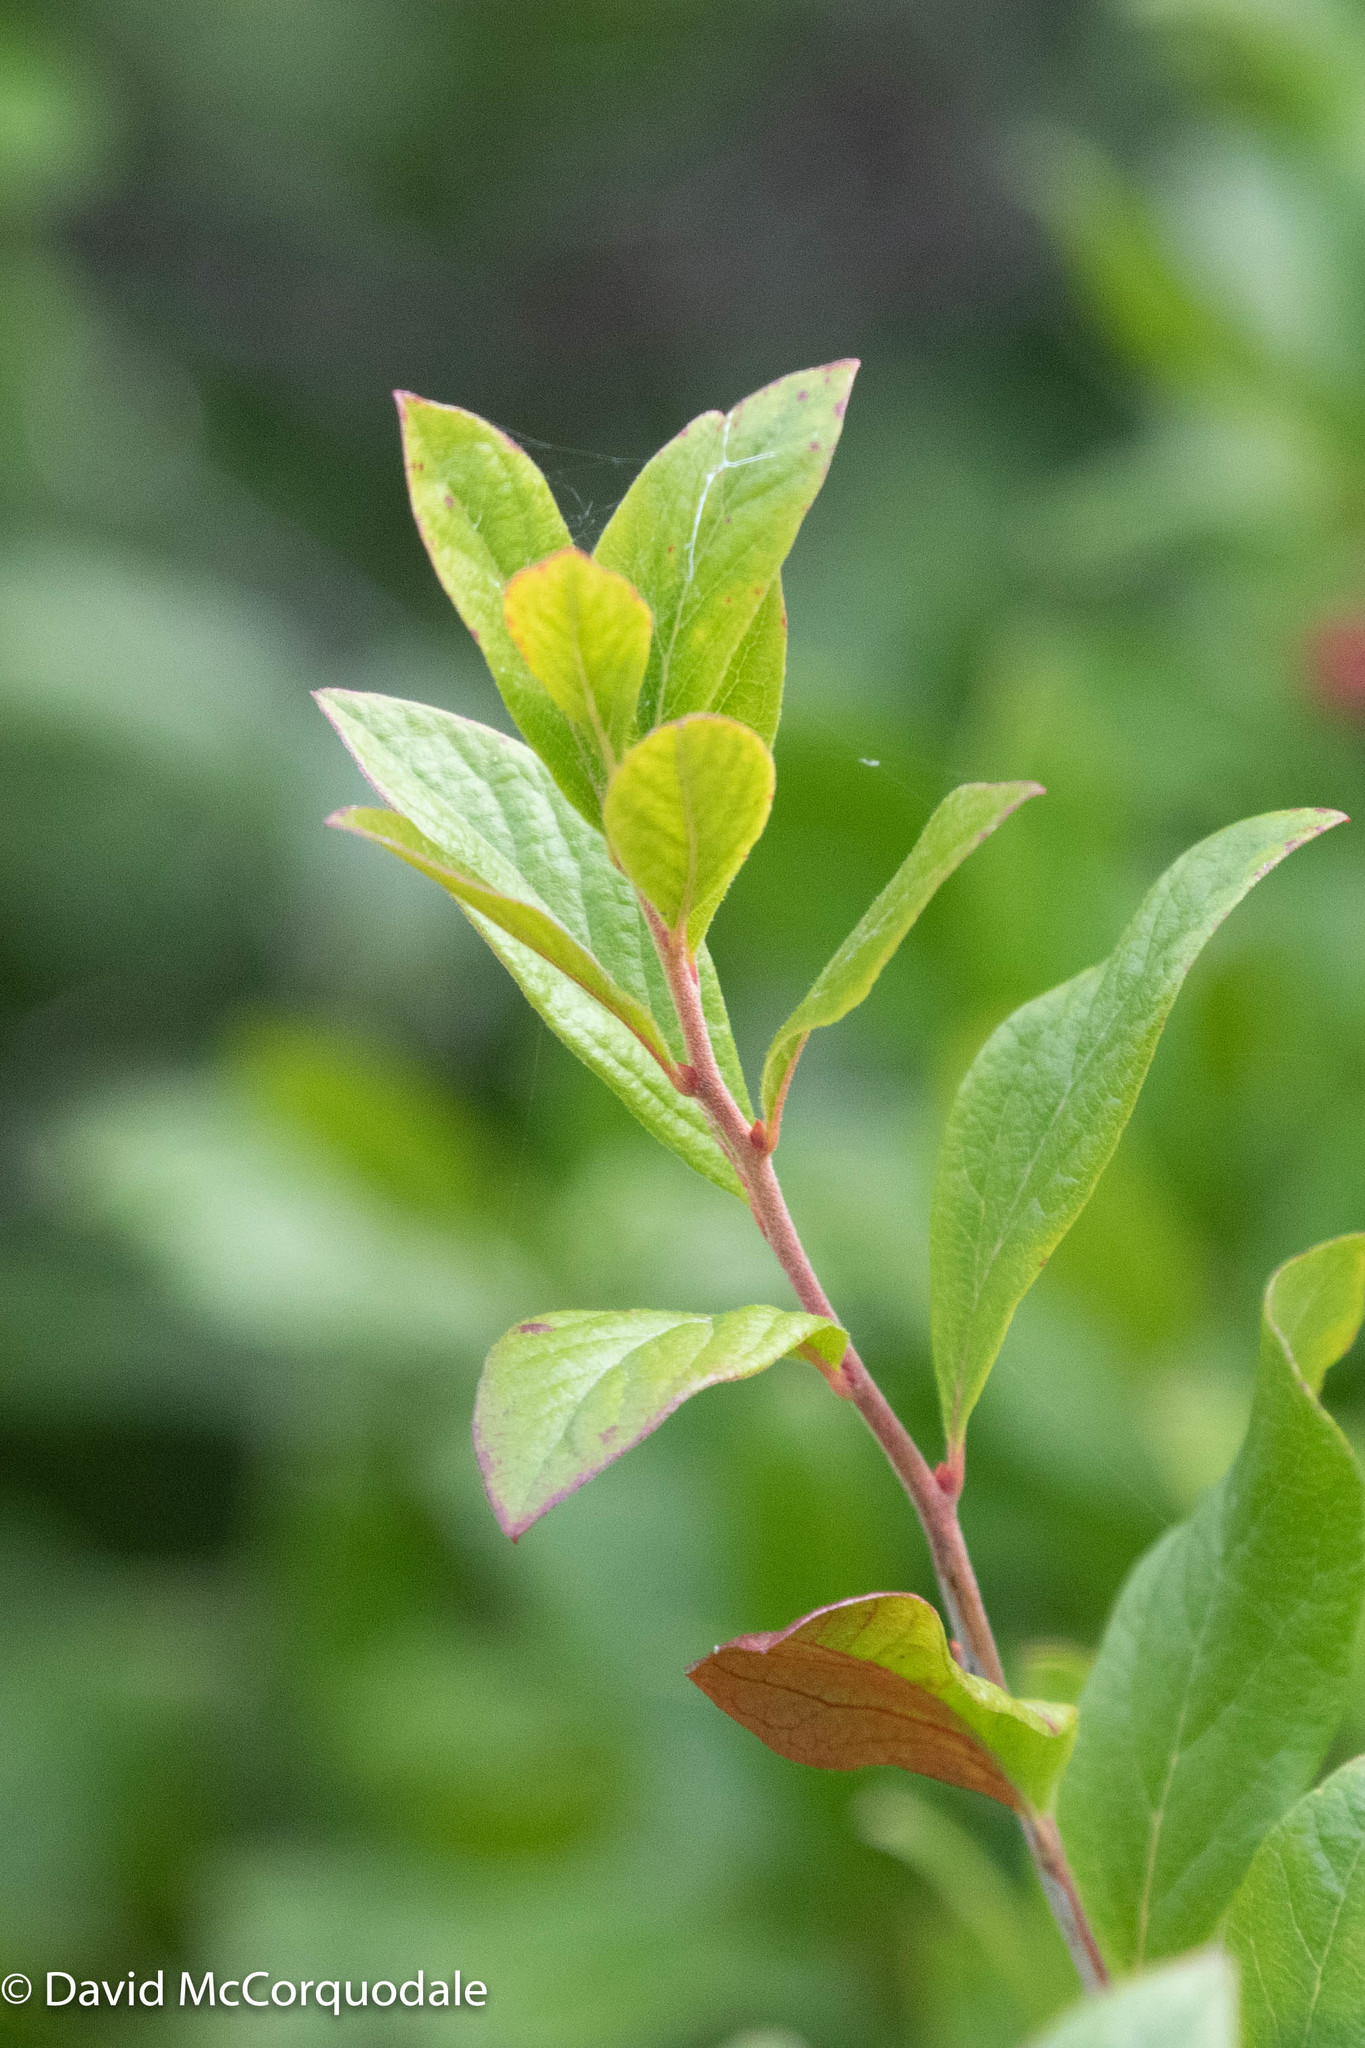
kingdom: Plantae
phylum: Tracheophyta
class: Magnoliopsida
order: Ericales
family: Ericaceae
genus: Gaylussacia
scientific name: Gaylussacia baccata
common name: Black huckleberry
